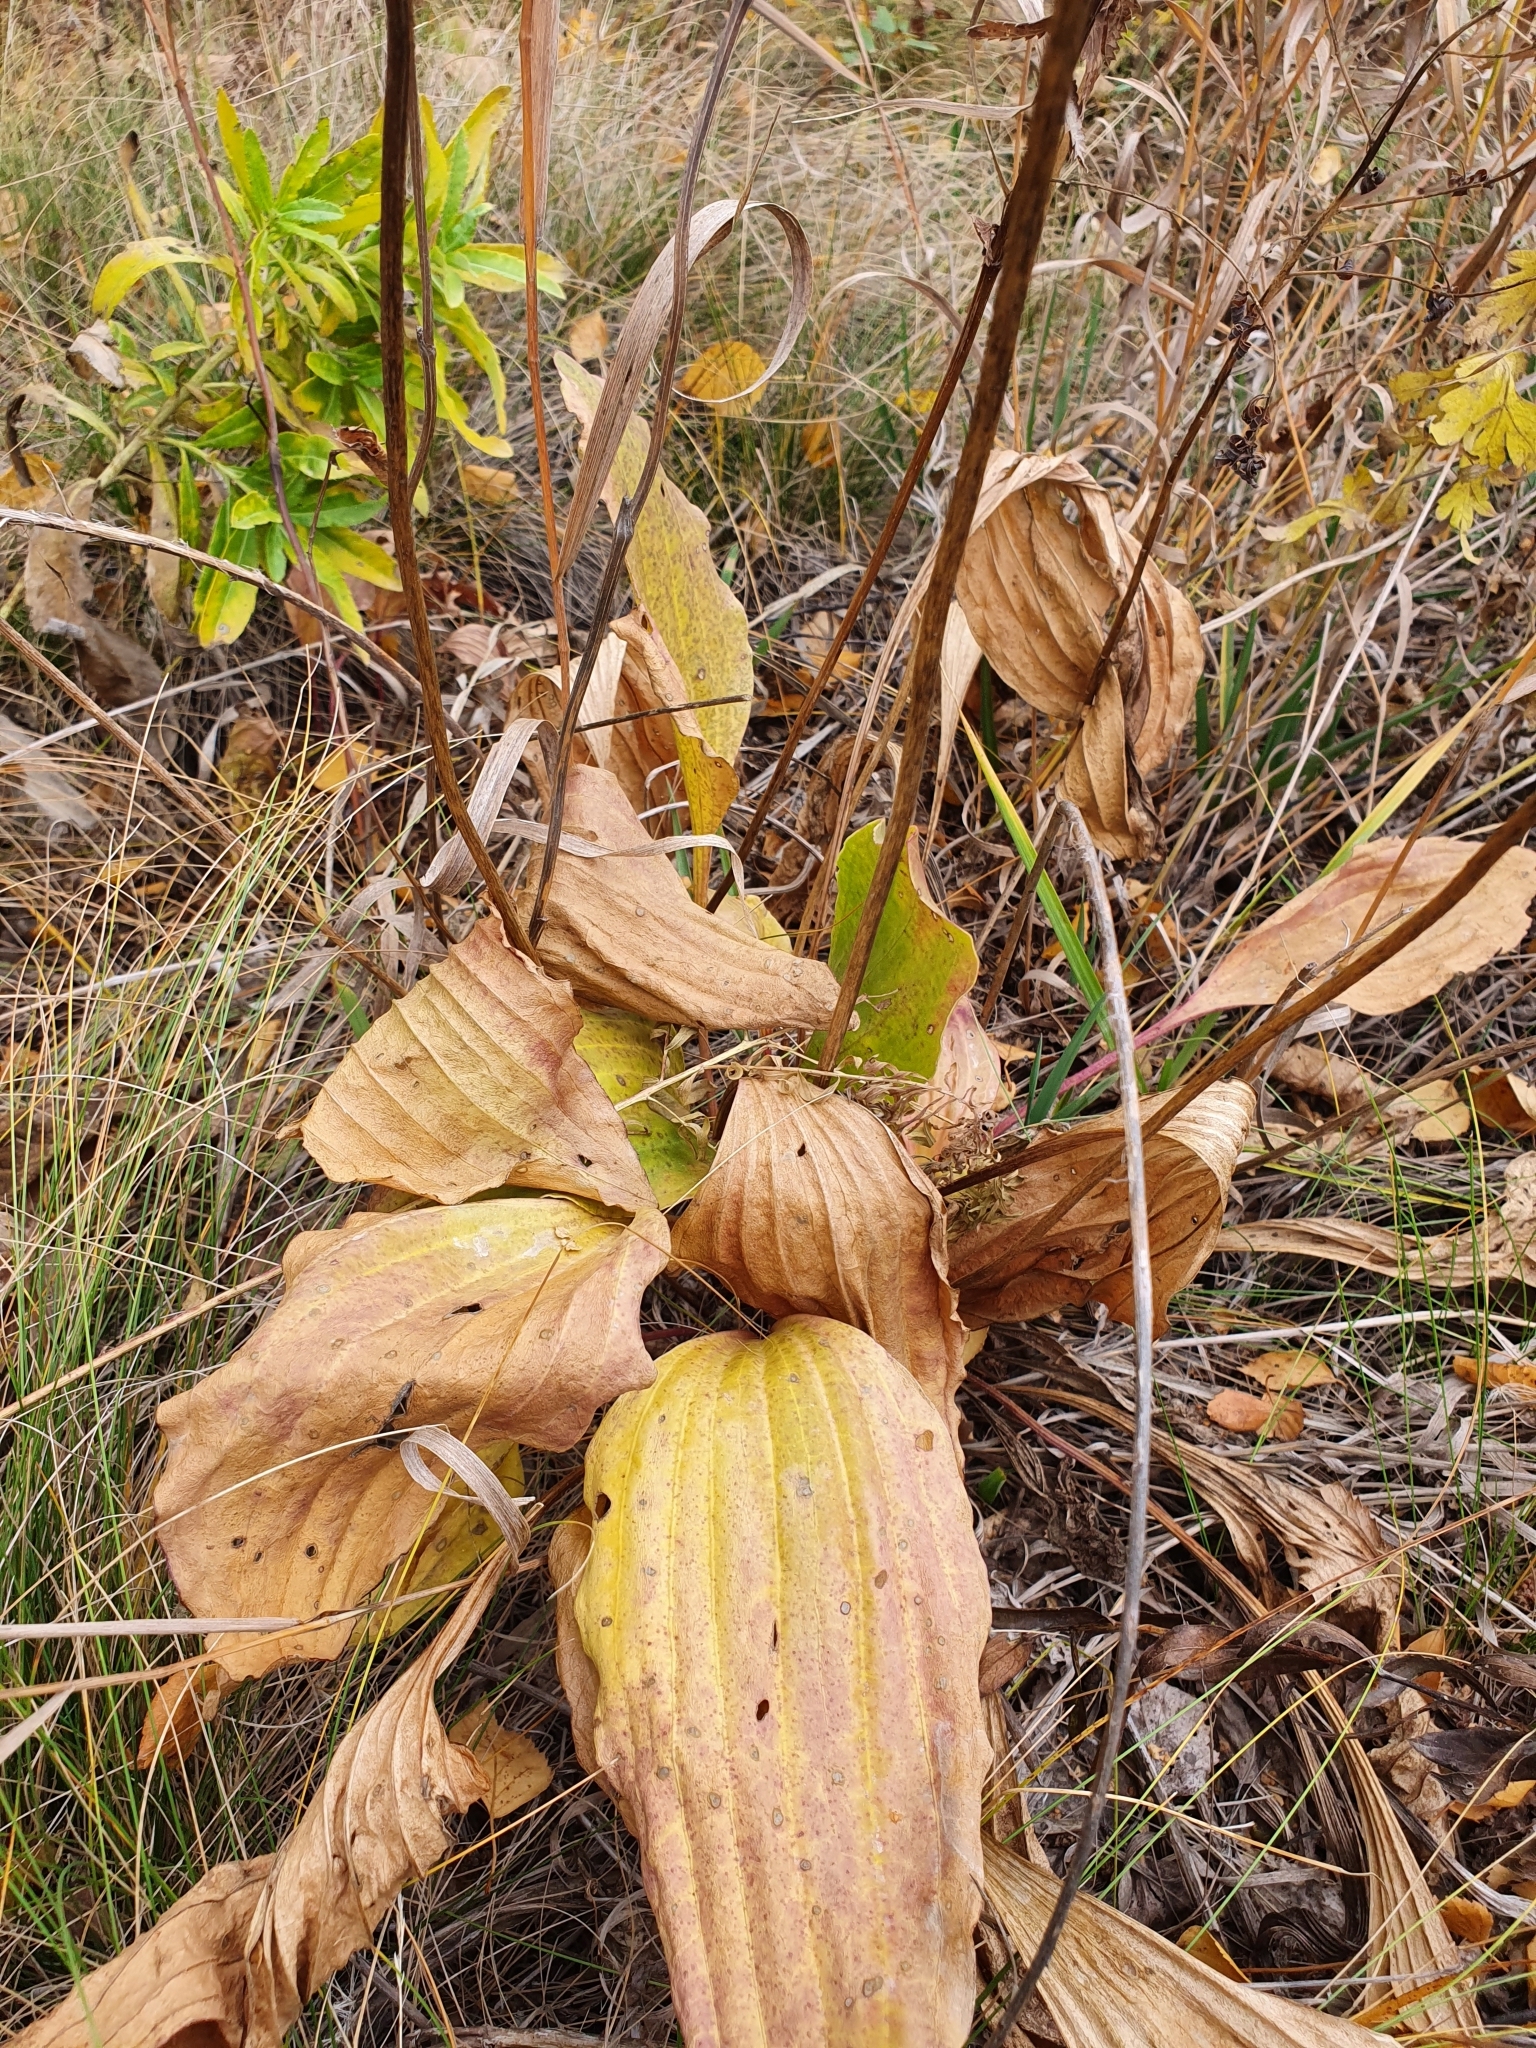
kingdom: Plantae
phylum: Tracheophyta
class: Magnoliopsida
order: Lamiales
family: Plantaginaceae
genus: Plantago
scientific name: Plantago cornuti
